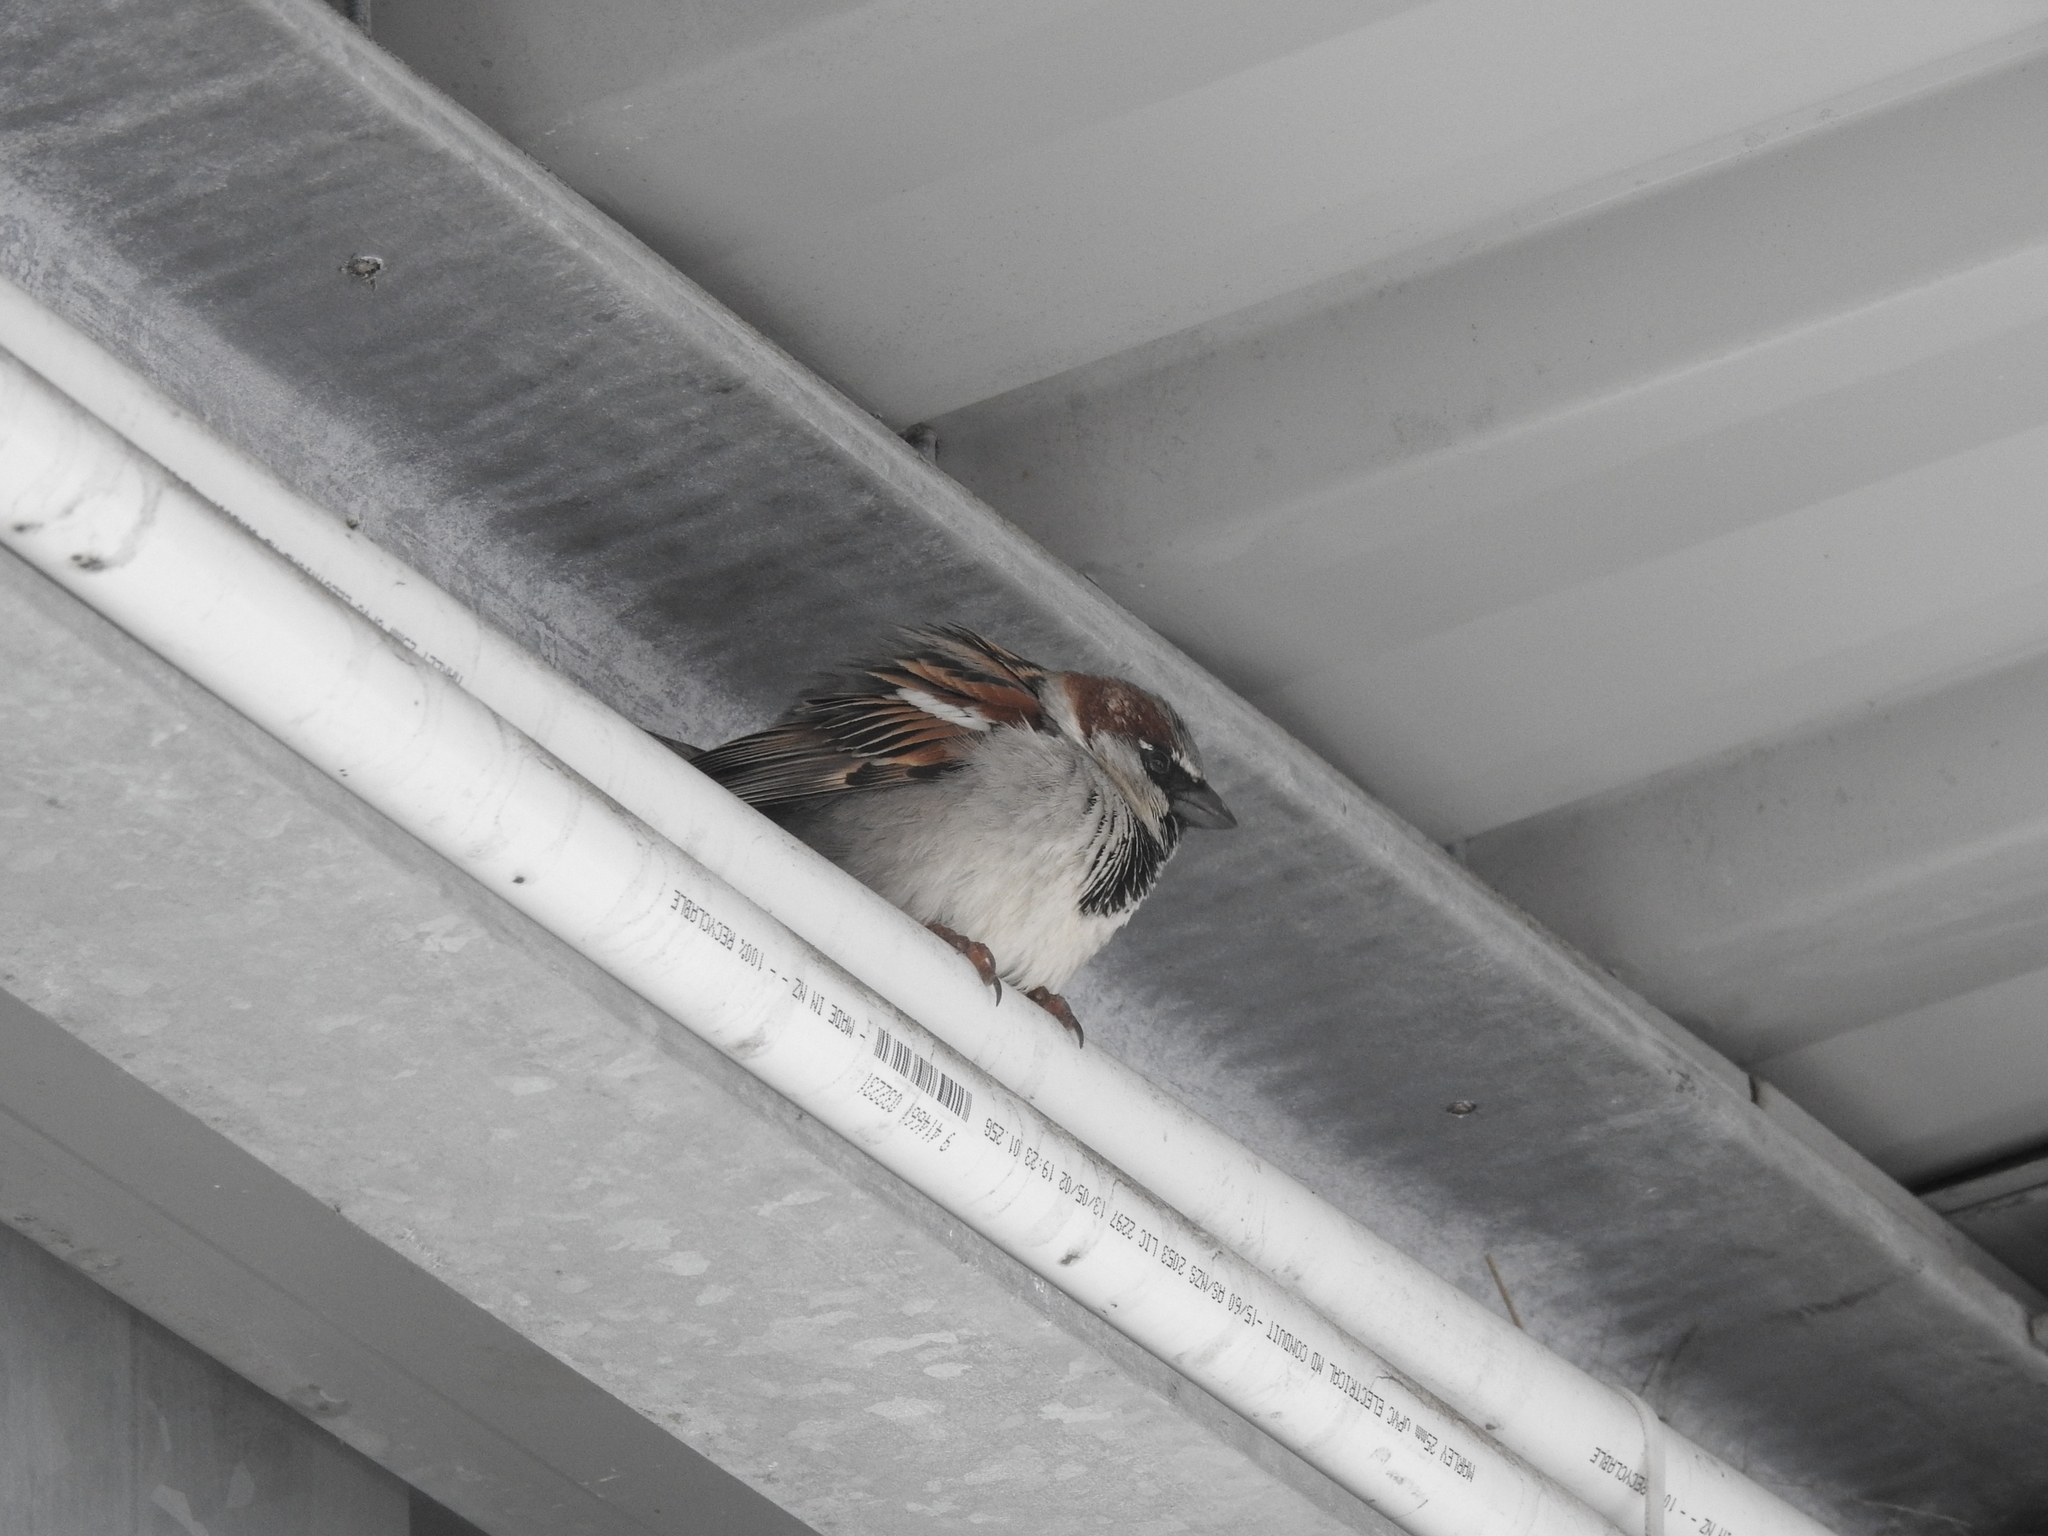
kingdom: Animalia
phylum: Chordata
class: Aves
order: Passeriformes
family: Passeridae
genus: Passer
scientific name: Passer domesticus
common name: House sparrow
